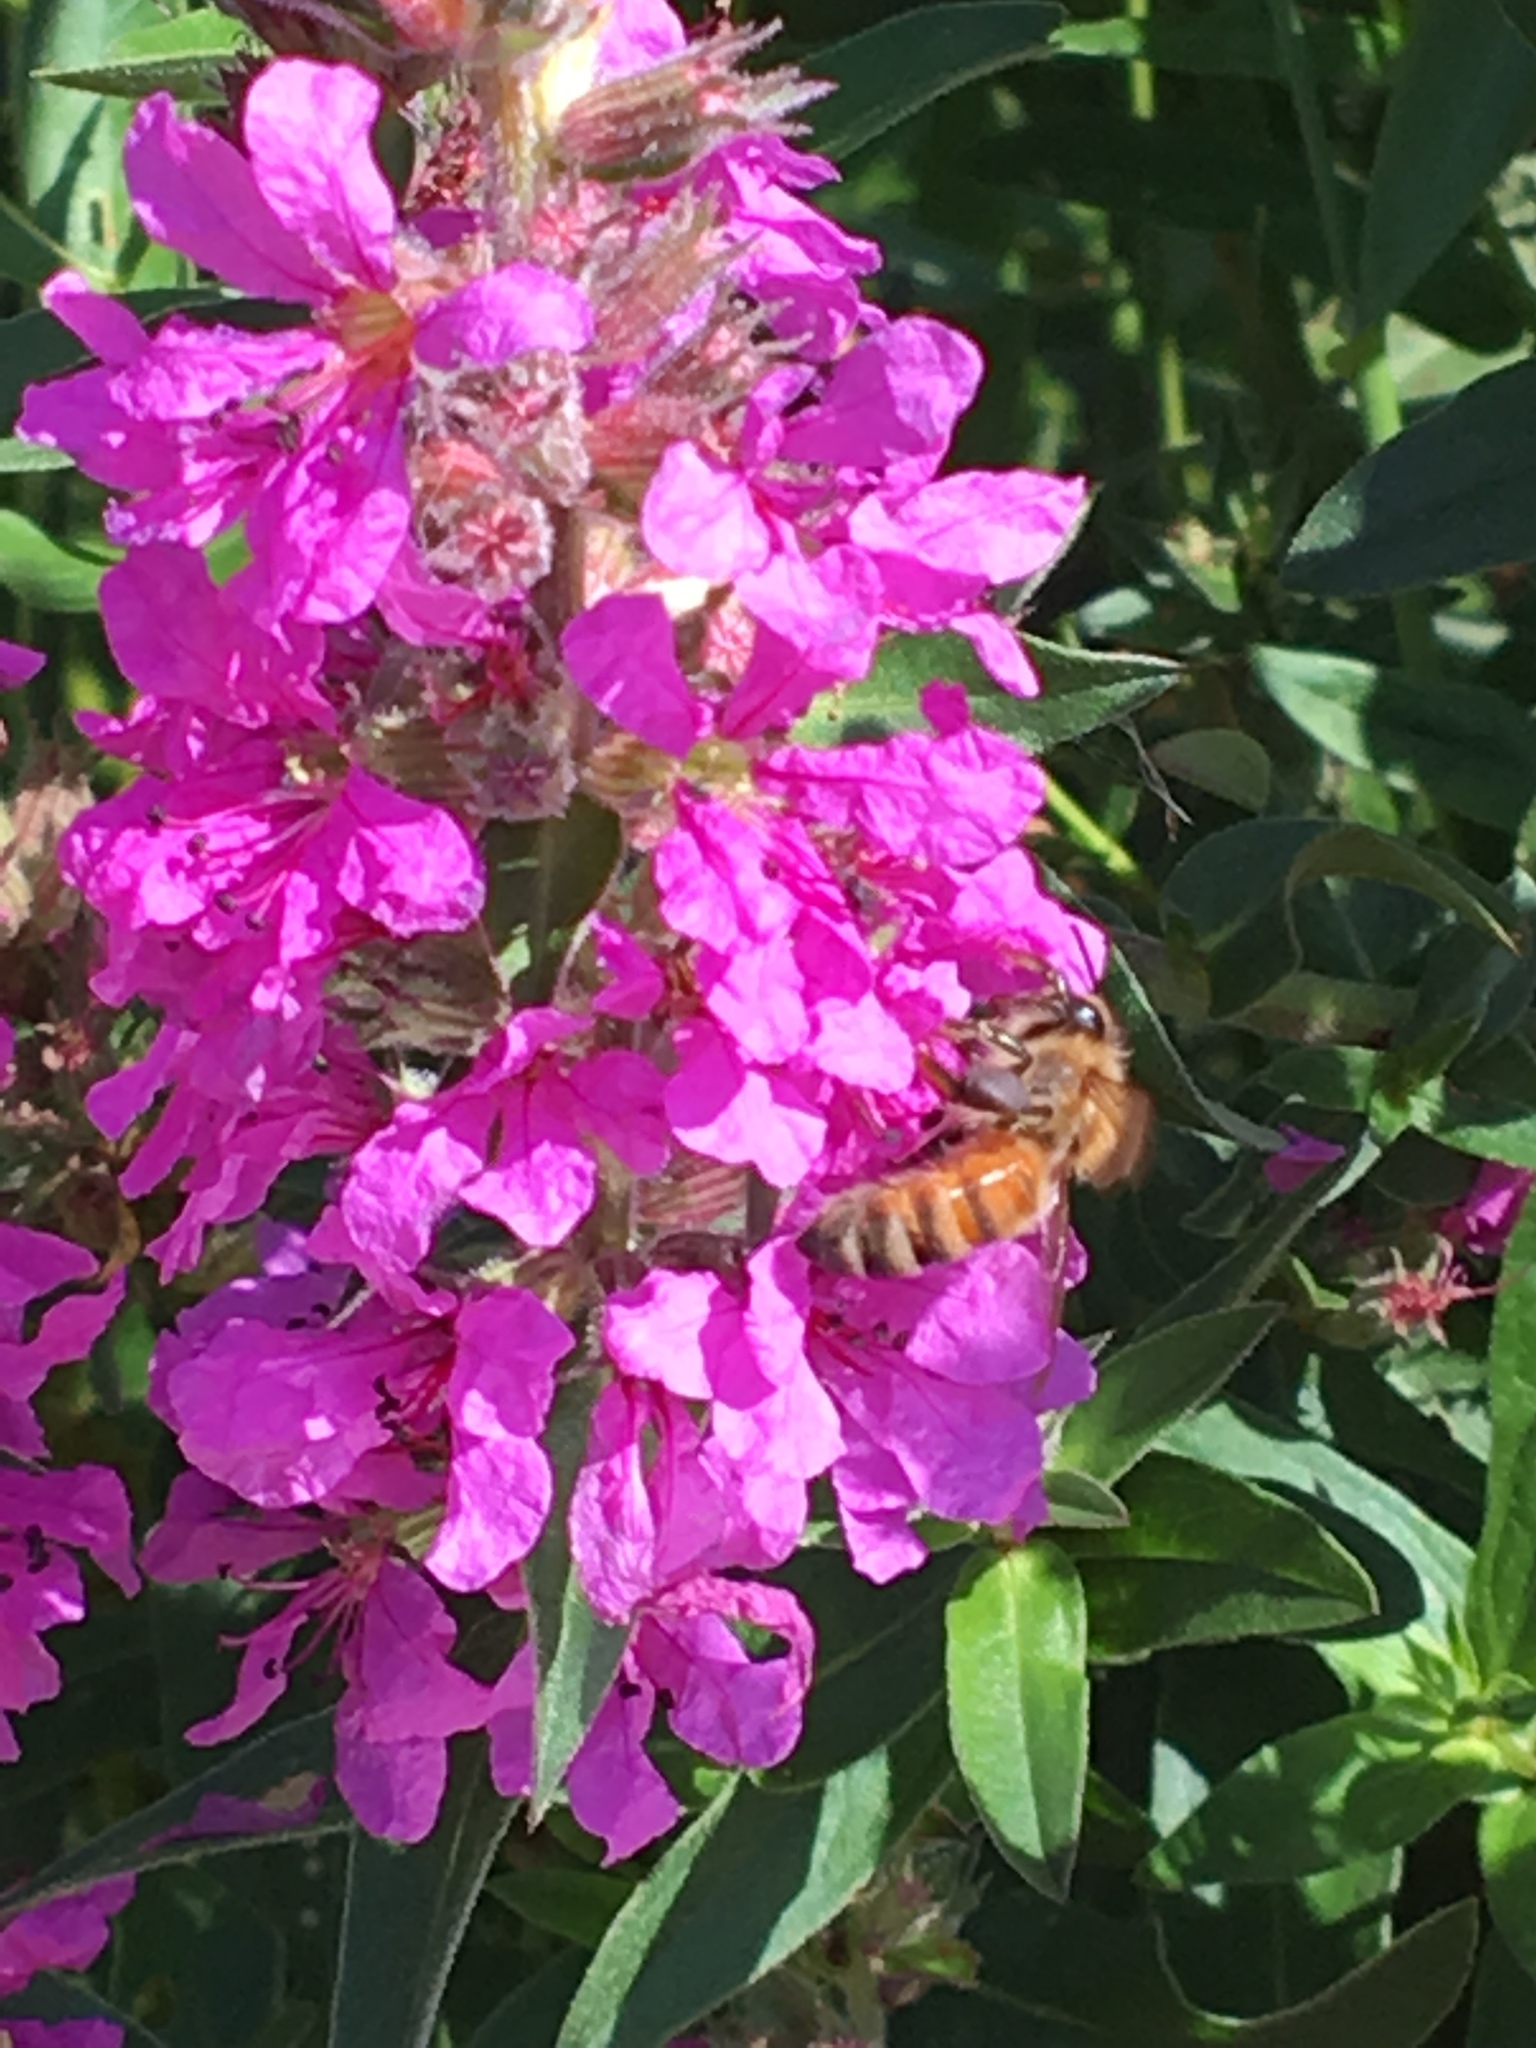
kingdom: Animalia
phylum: Arthropoda
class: Insecta
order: Hymenoptera
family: Apidae
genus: Apis
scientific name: Apis mellifera
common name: Honey bee
